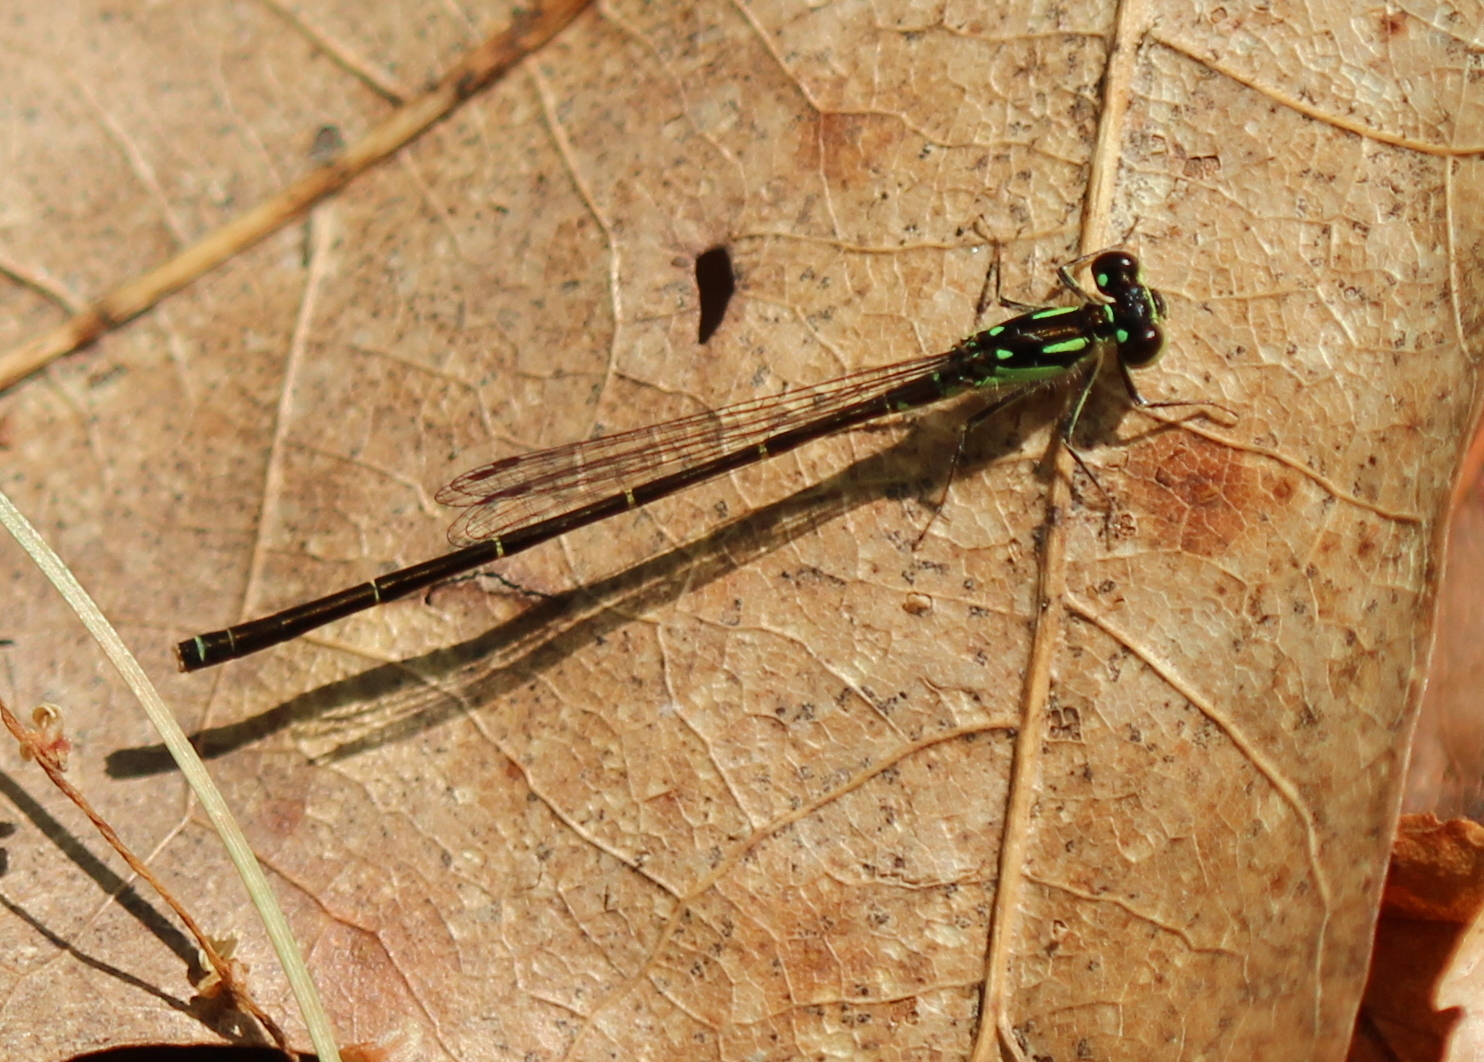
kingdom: Animalia
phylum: Arthropoda
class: Insecta
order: Odonata
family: Coenagrionidae
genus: Ischnura
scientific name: Ischnura posita
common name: Fragile forktail
